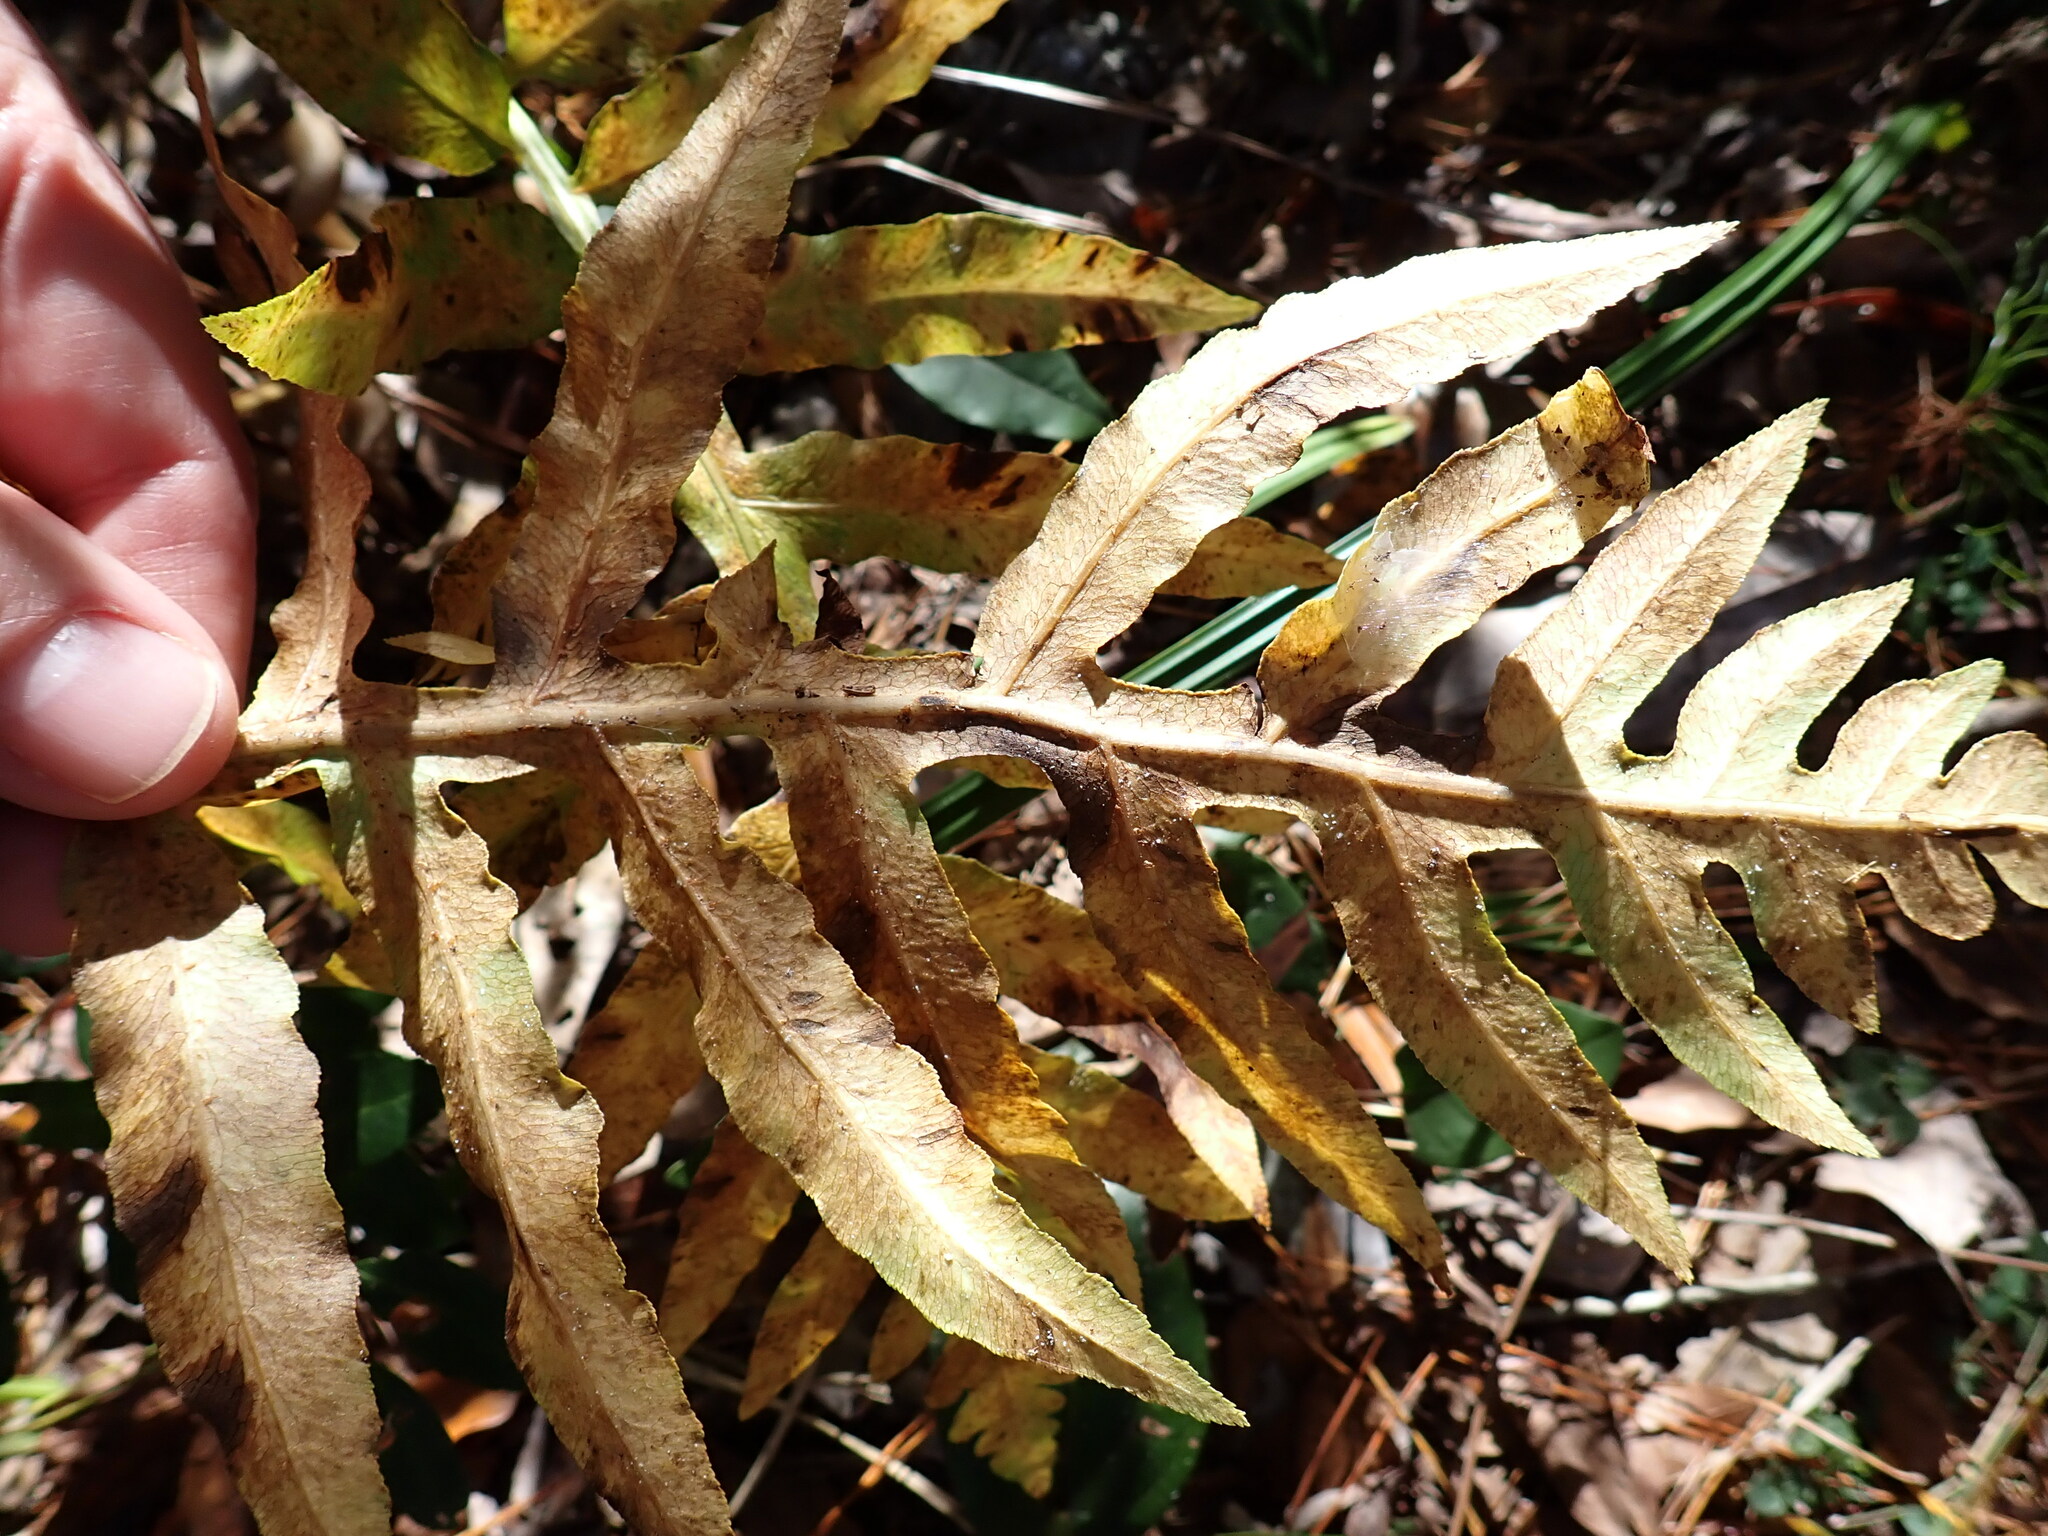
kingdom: Plantae
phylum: Tracheophyta
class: Polypodiopsida
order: Polypodiales
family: Blechnaceae
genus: Lorinseria
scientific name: Lorinseria areolata
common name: Dwarf chain fern
